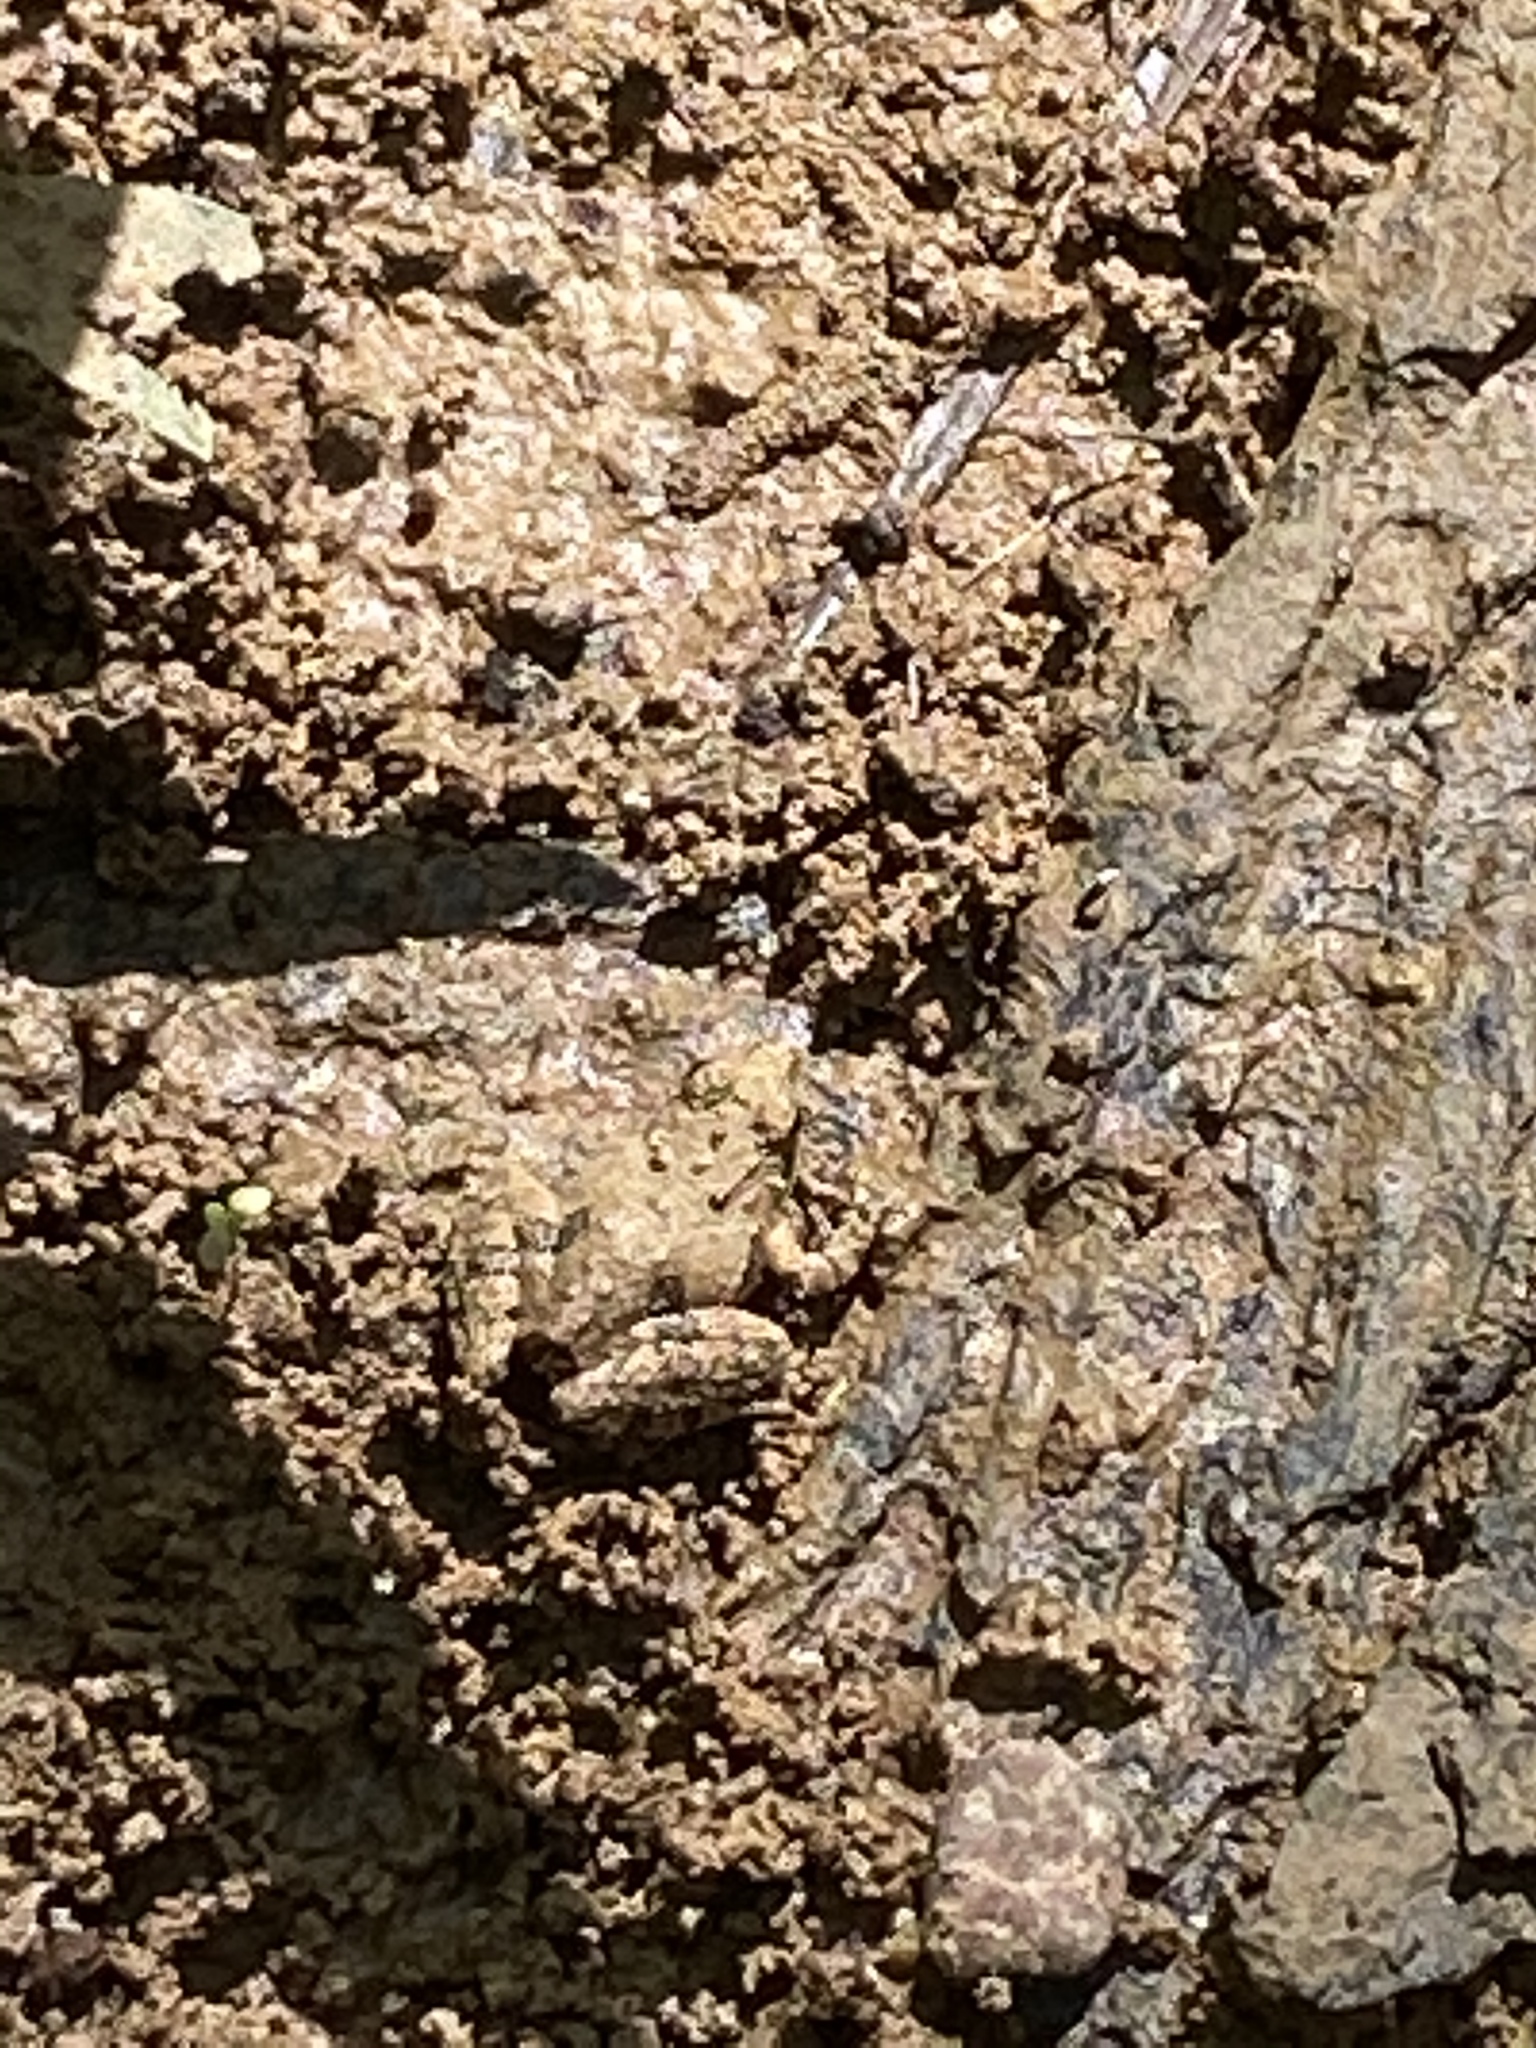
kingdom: Animalia
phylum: Chordata
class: Amphibia
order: Anura
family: Hylidae
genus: Acris
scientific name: Acris crepitans
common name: Northern cricket frog
